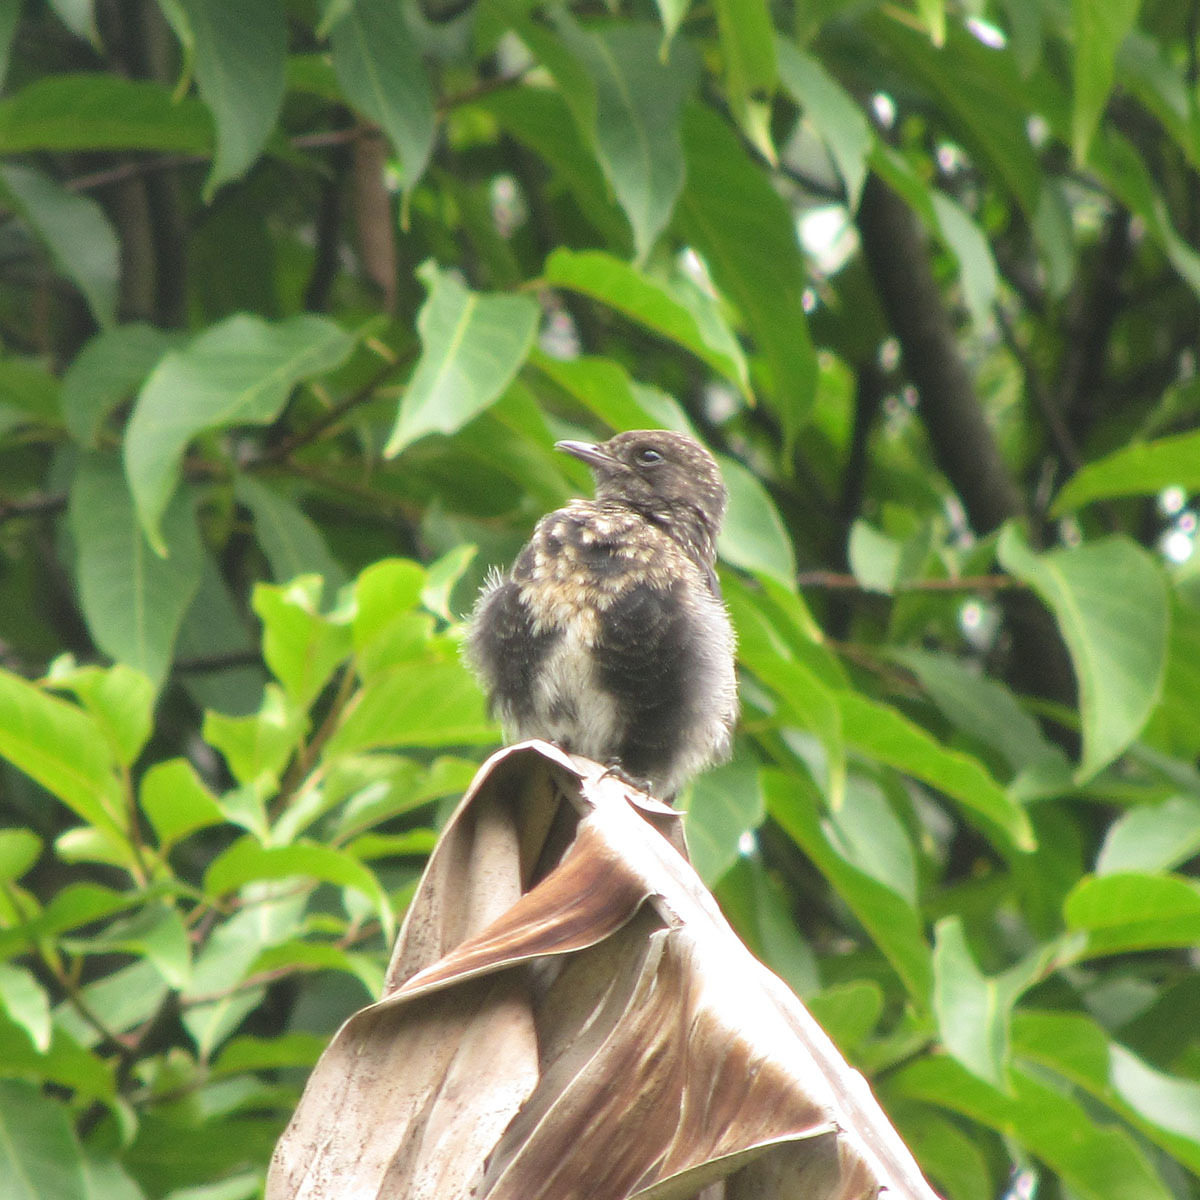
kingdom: Animalia
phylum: Chordata
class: Aves
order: Passeriformes
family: Muscicapidae
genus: Saxicola
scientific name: Saxicola caprata
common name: Pied bush chat
